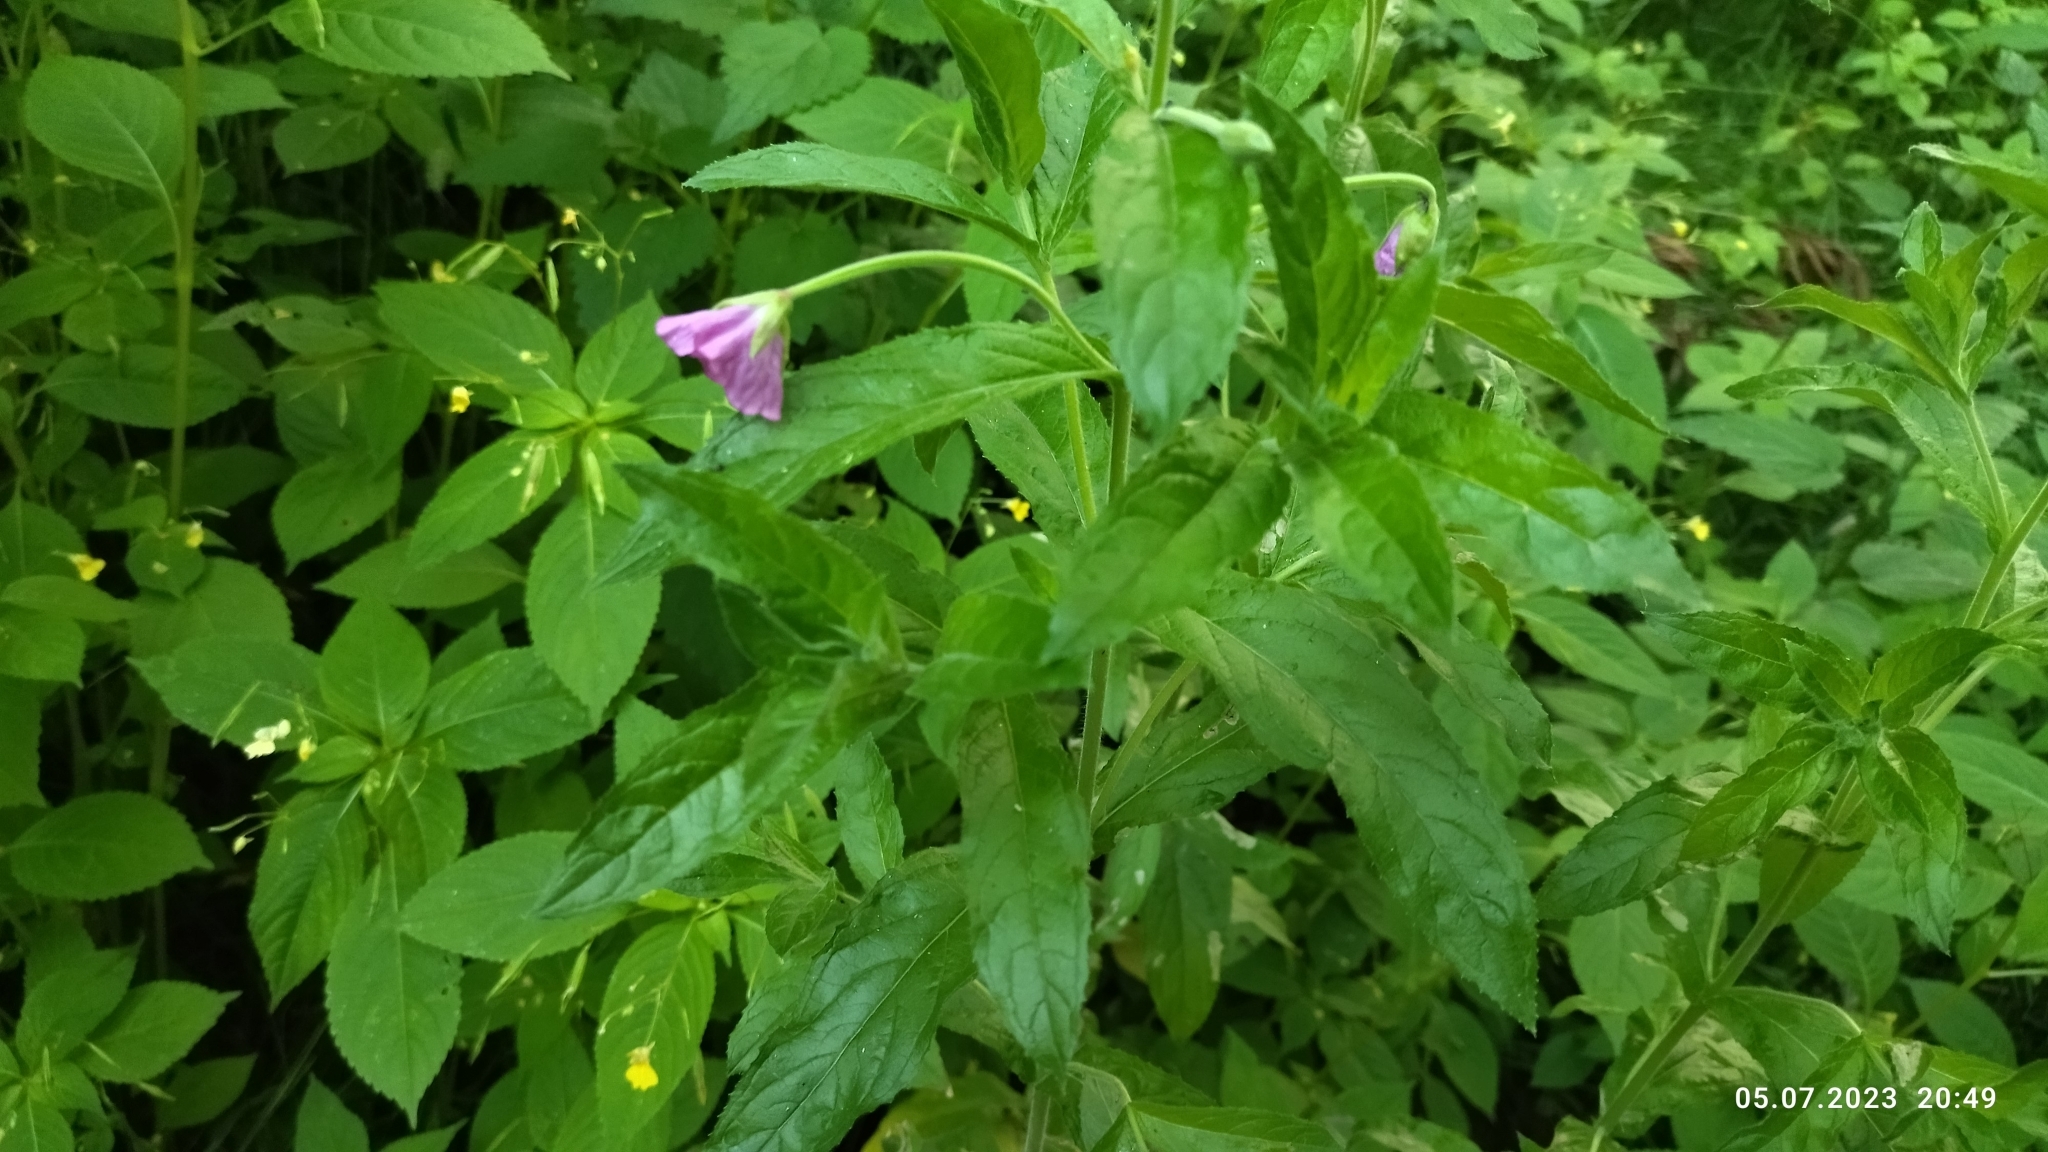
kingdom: Plantae
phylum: Tracheophyta
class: Magnoliopsida
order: Myrtales
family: Onagraceae
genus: Epilobium
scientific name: Epilobium hirsutum
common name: Great willowherb
